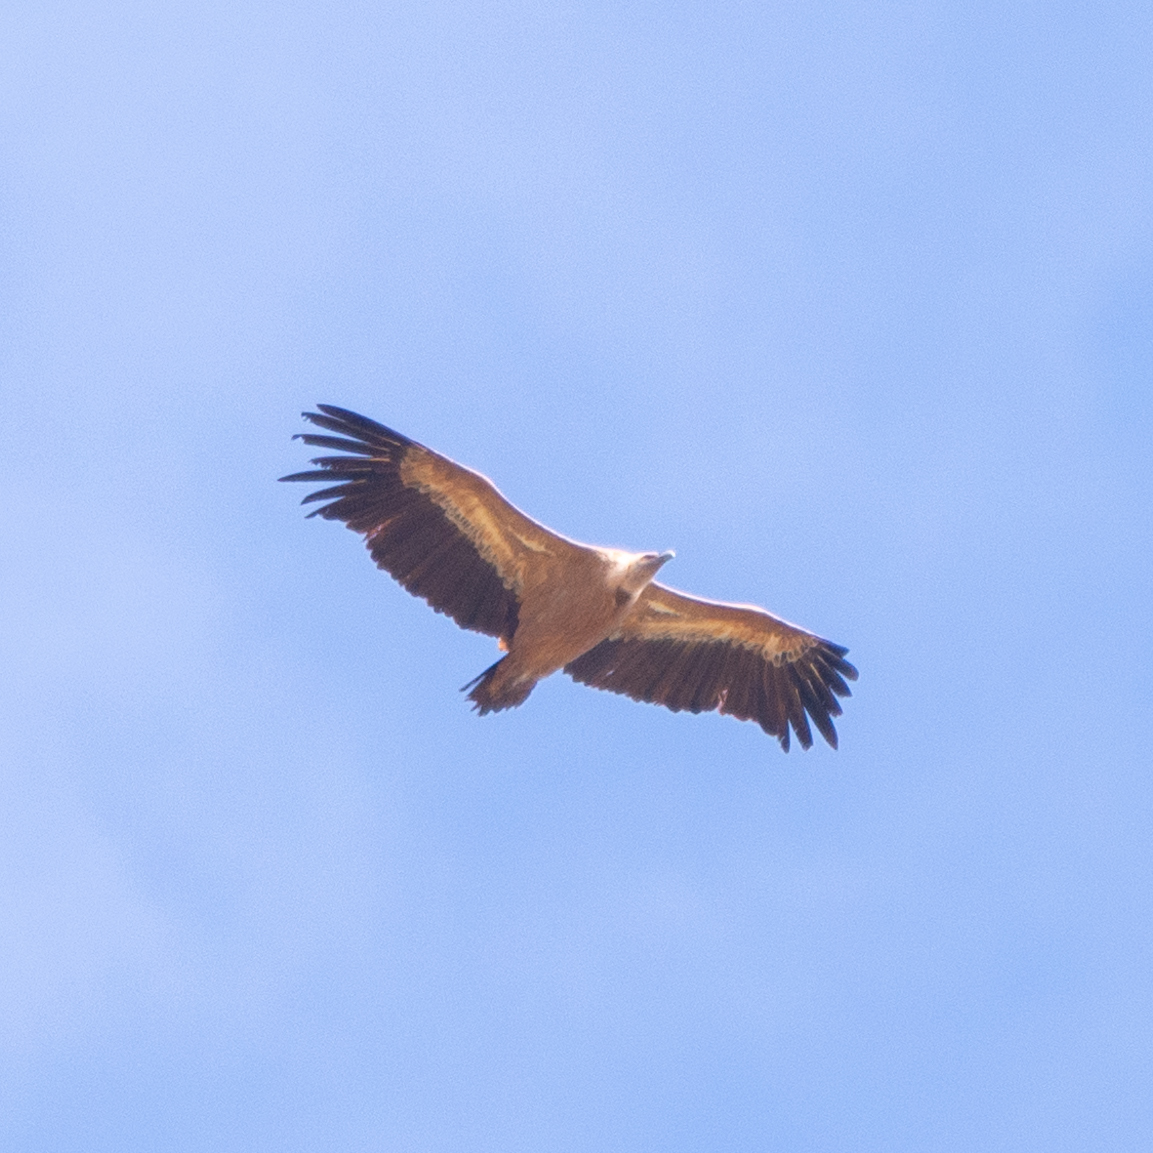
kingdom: Animalia
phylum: Chordata
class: Aves
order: Accipitriformes
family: Accipitridae
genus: Gyps
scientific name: Gyps fulvus
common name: Griffon vulture
